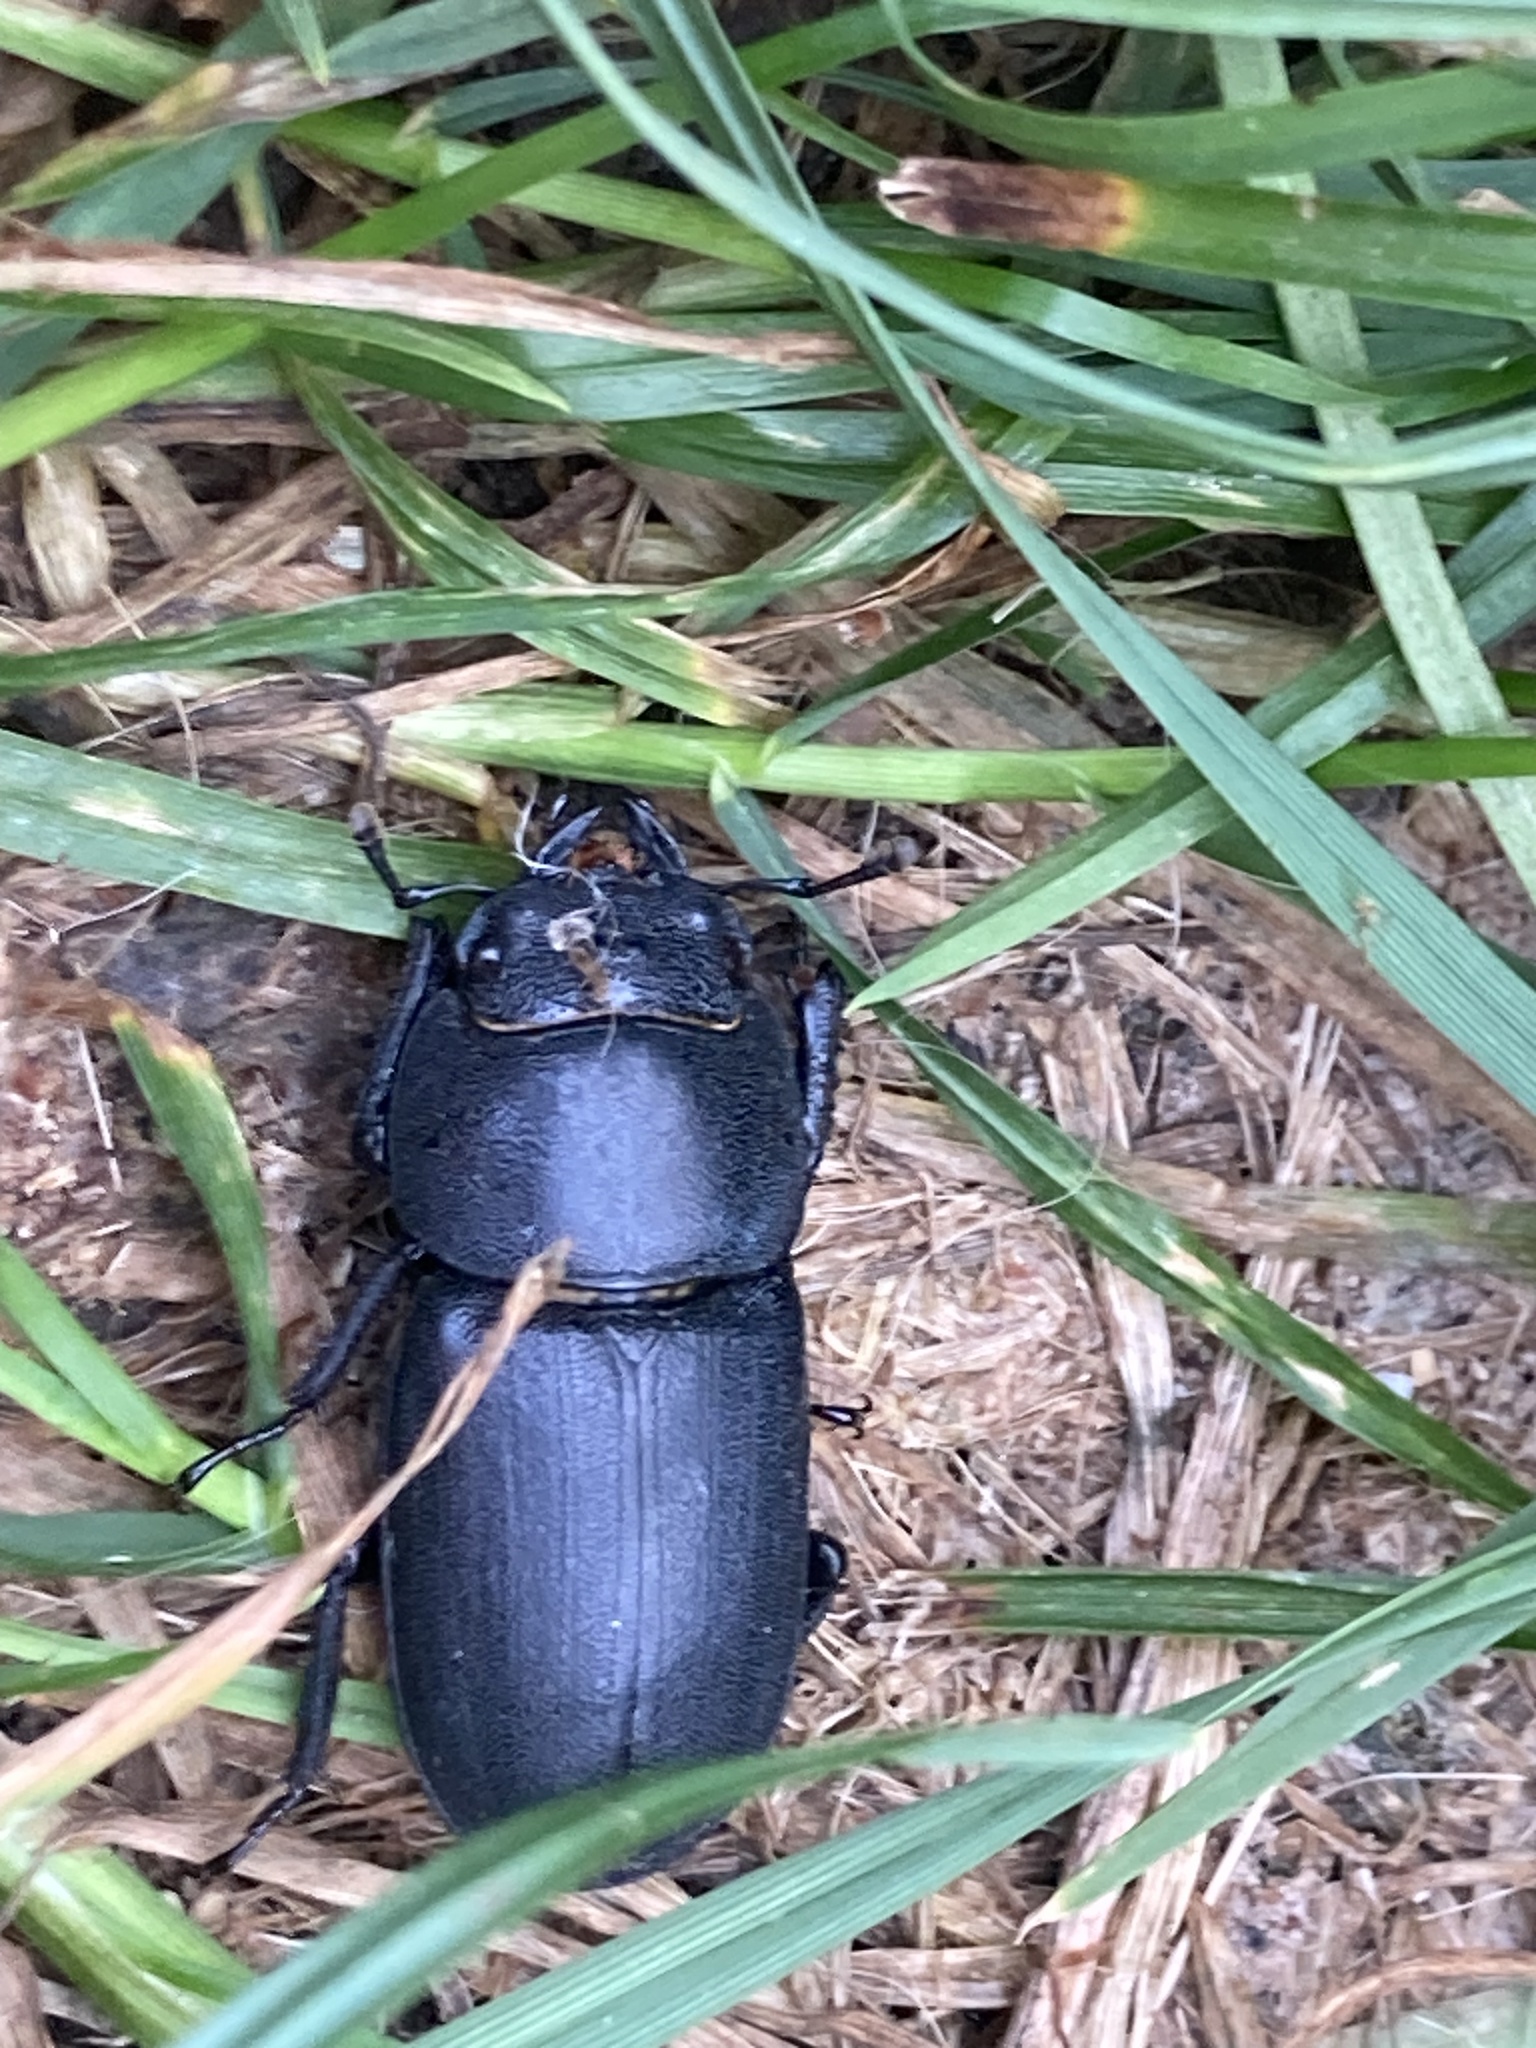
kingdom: Animalia
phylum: Arthropoda
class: Insecta
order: Coleoptera
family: Lucanidae
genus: Dorcus
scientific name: Dorcus parallelipipedus
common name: Lesser stag beetle
